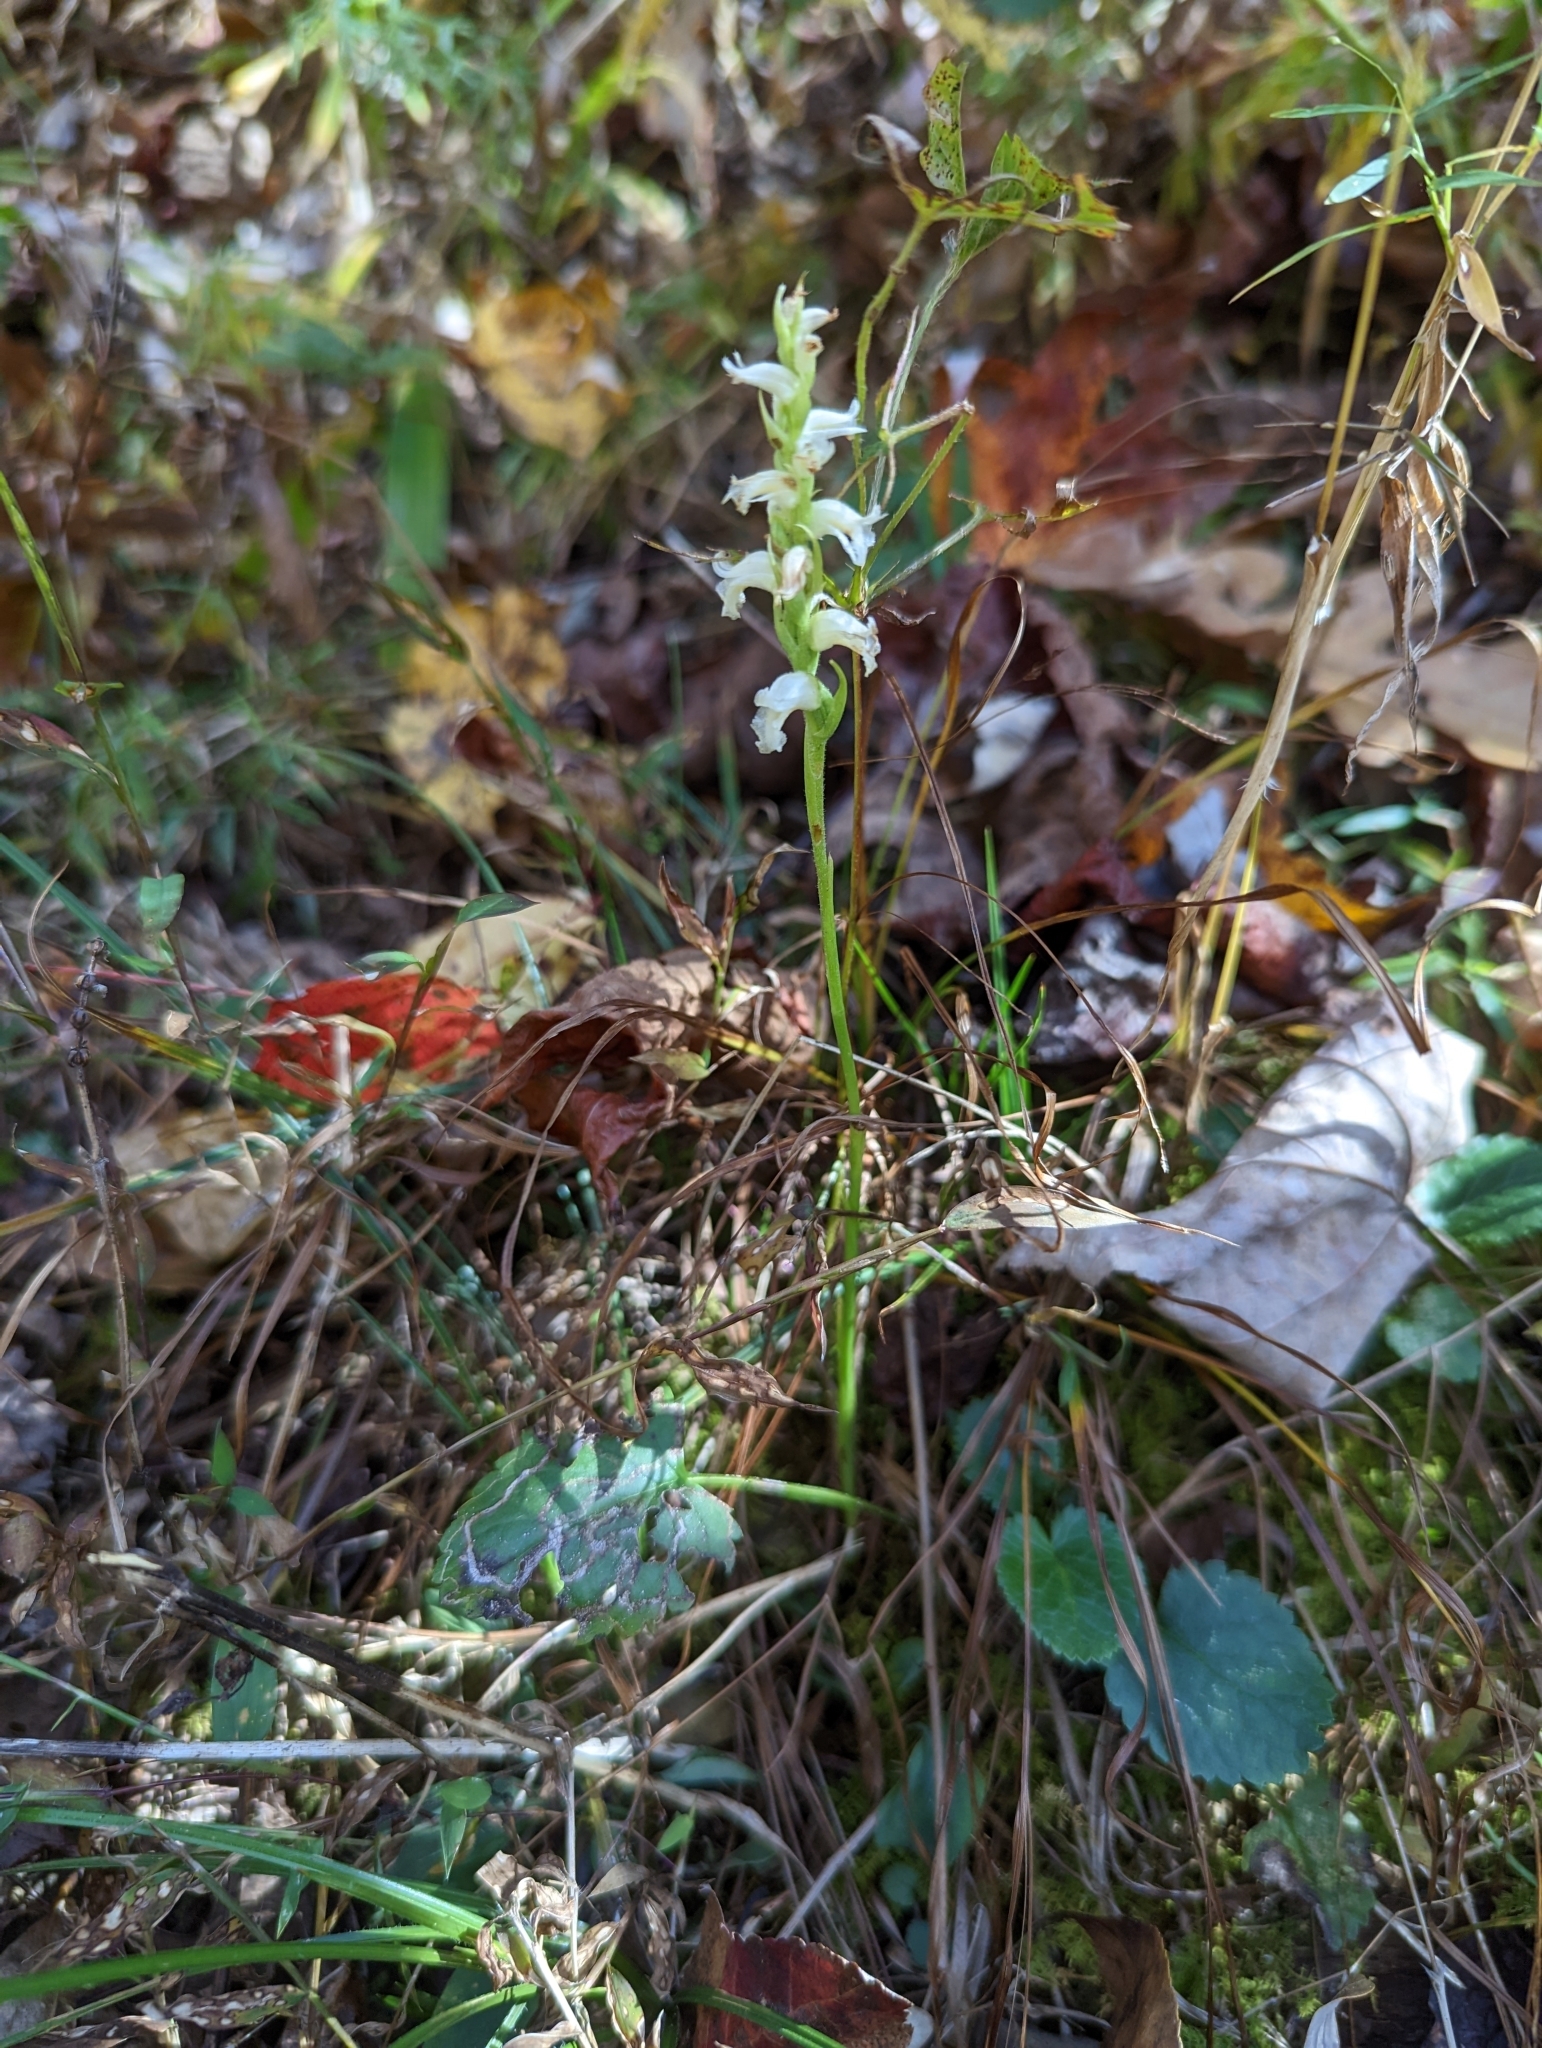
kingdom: Plantae
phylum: Tracheophyta
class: Liliopsida
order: Asparagales
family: Orchidaceae
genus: Spiranthes
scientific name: Spiranthes ochroleuca
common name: Yellow ladies'-tresses
